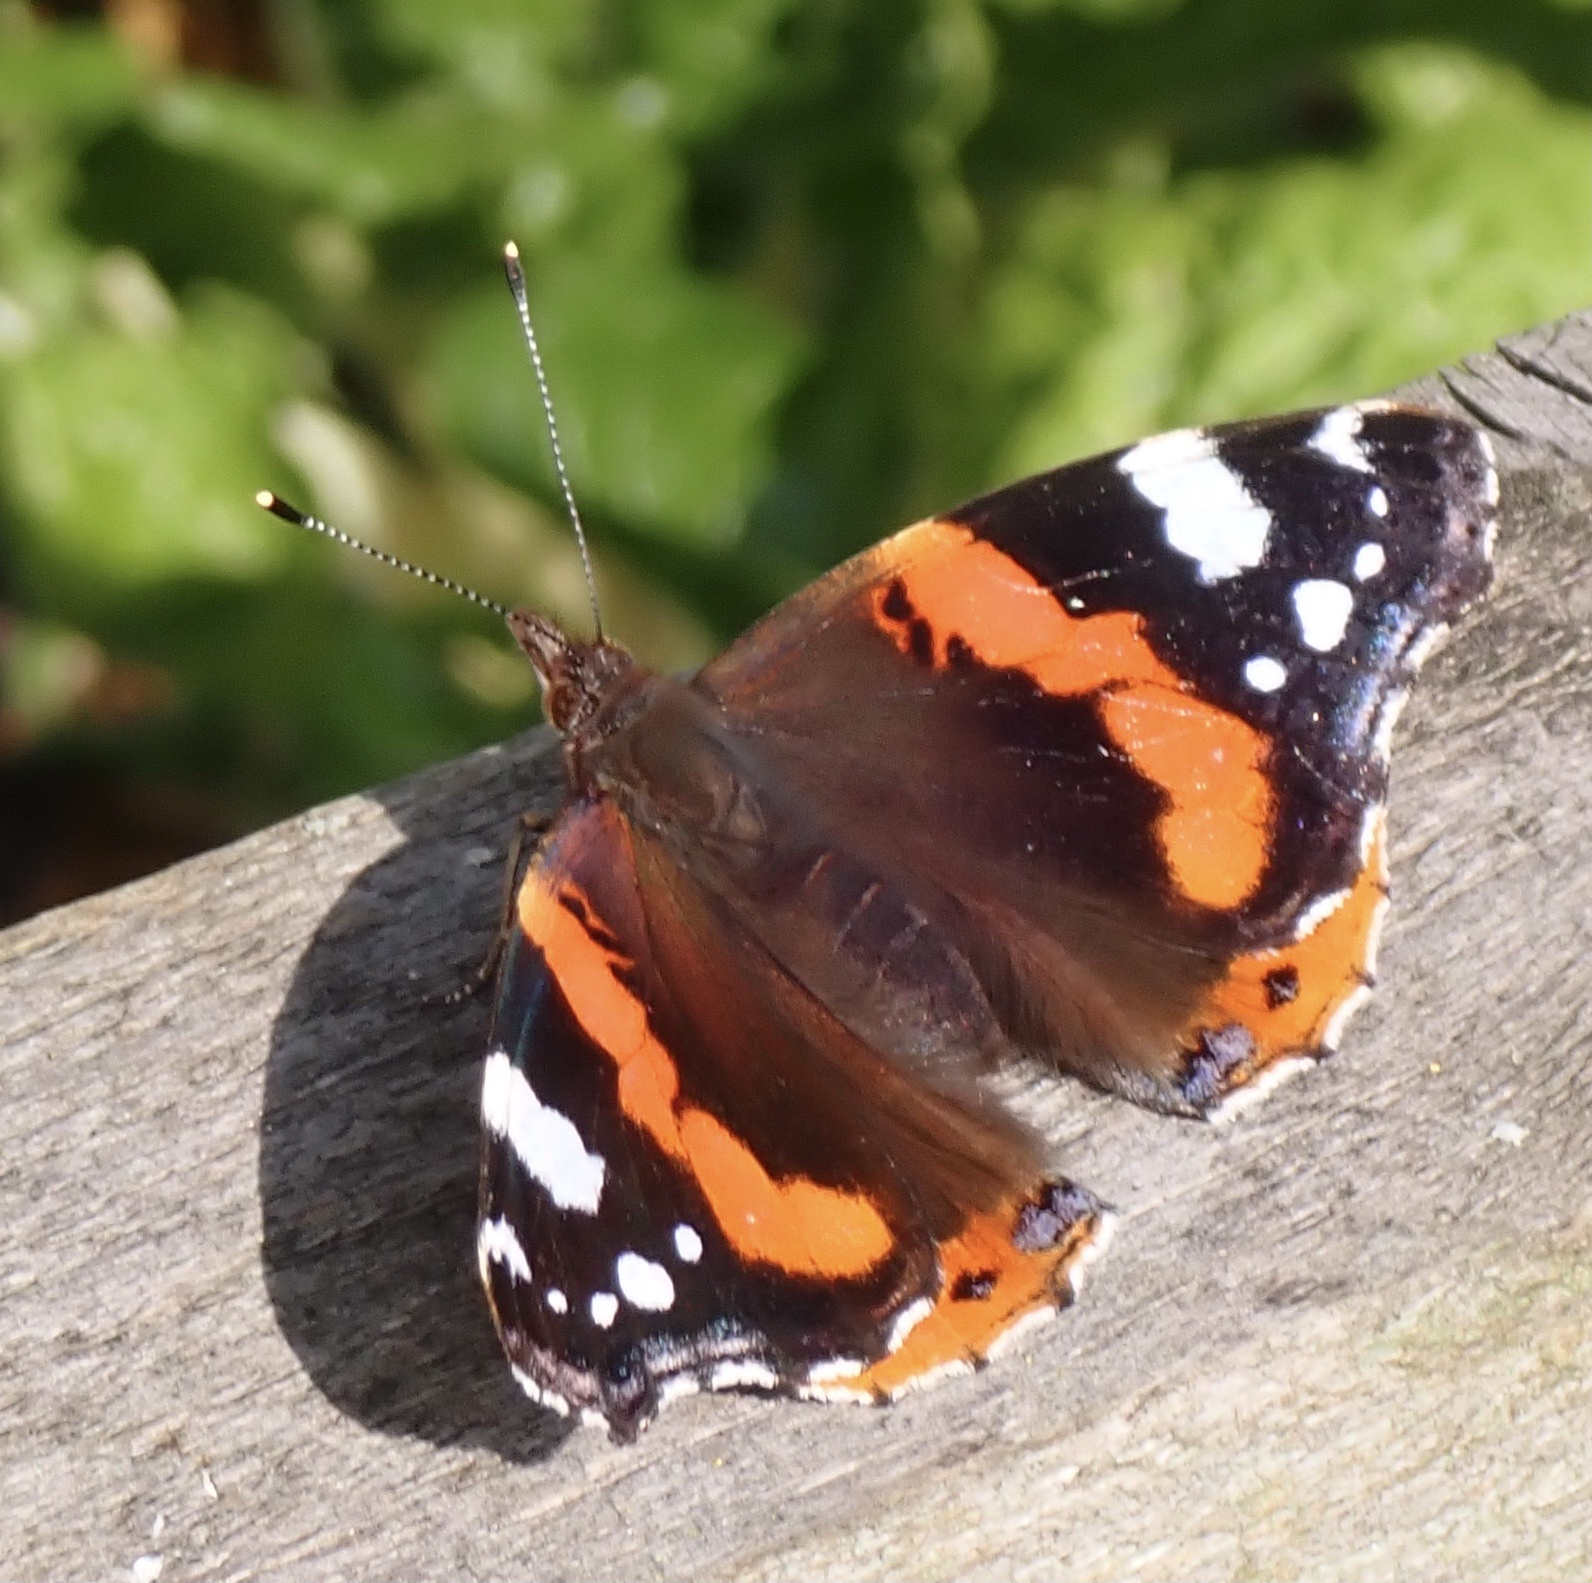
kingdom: Animalia
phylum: Arthropoda
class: Insecta
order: Lepidoptera
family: Nymphalidae
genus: Vanessa
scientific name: Vanessa atalanta
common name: Red admiral
